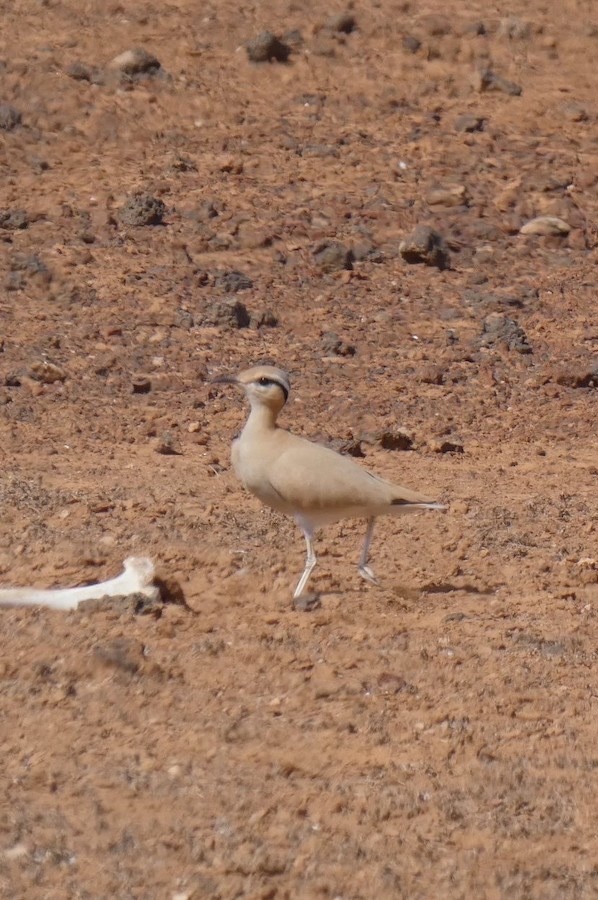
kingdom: Animalia
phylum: Chordata
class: Aves
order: Charadriiformes
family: Glareolidae
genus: Cursorius
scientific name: Cursorius cursor
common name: Cream-colored courser
